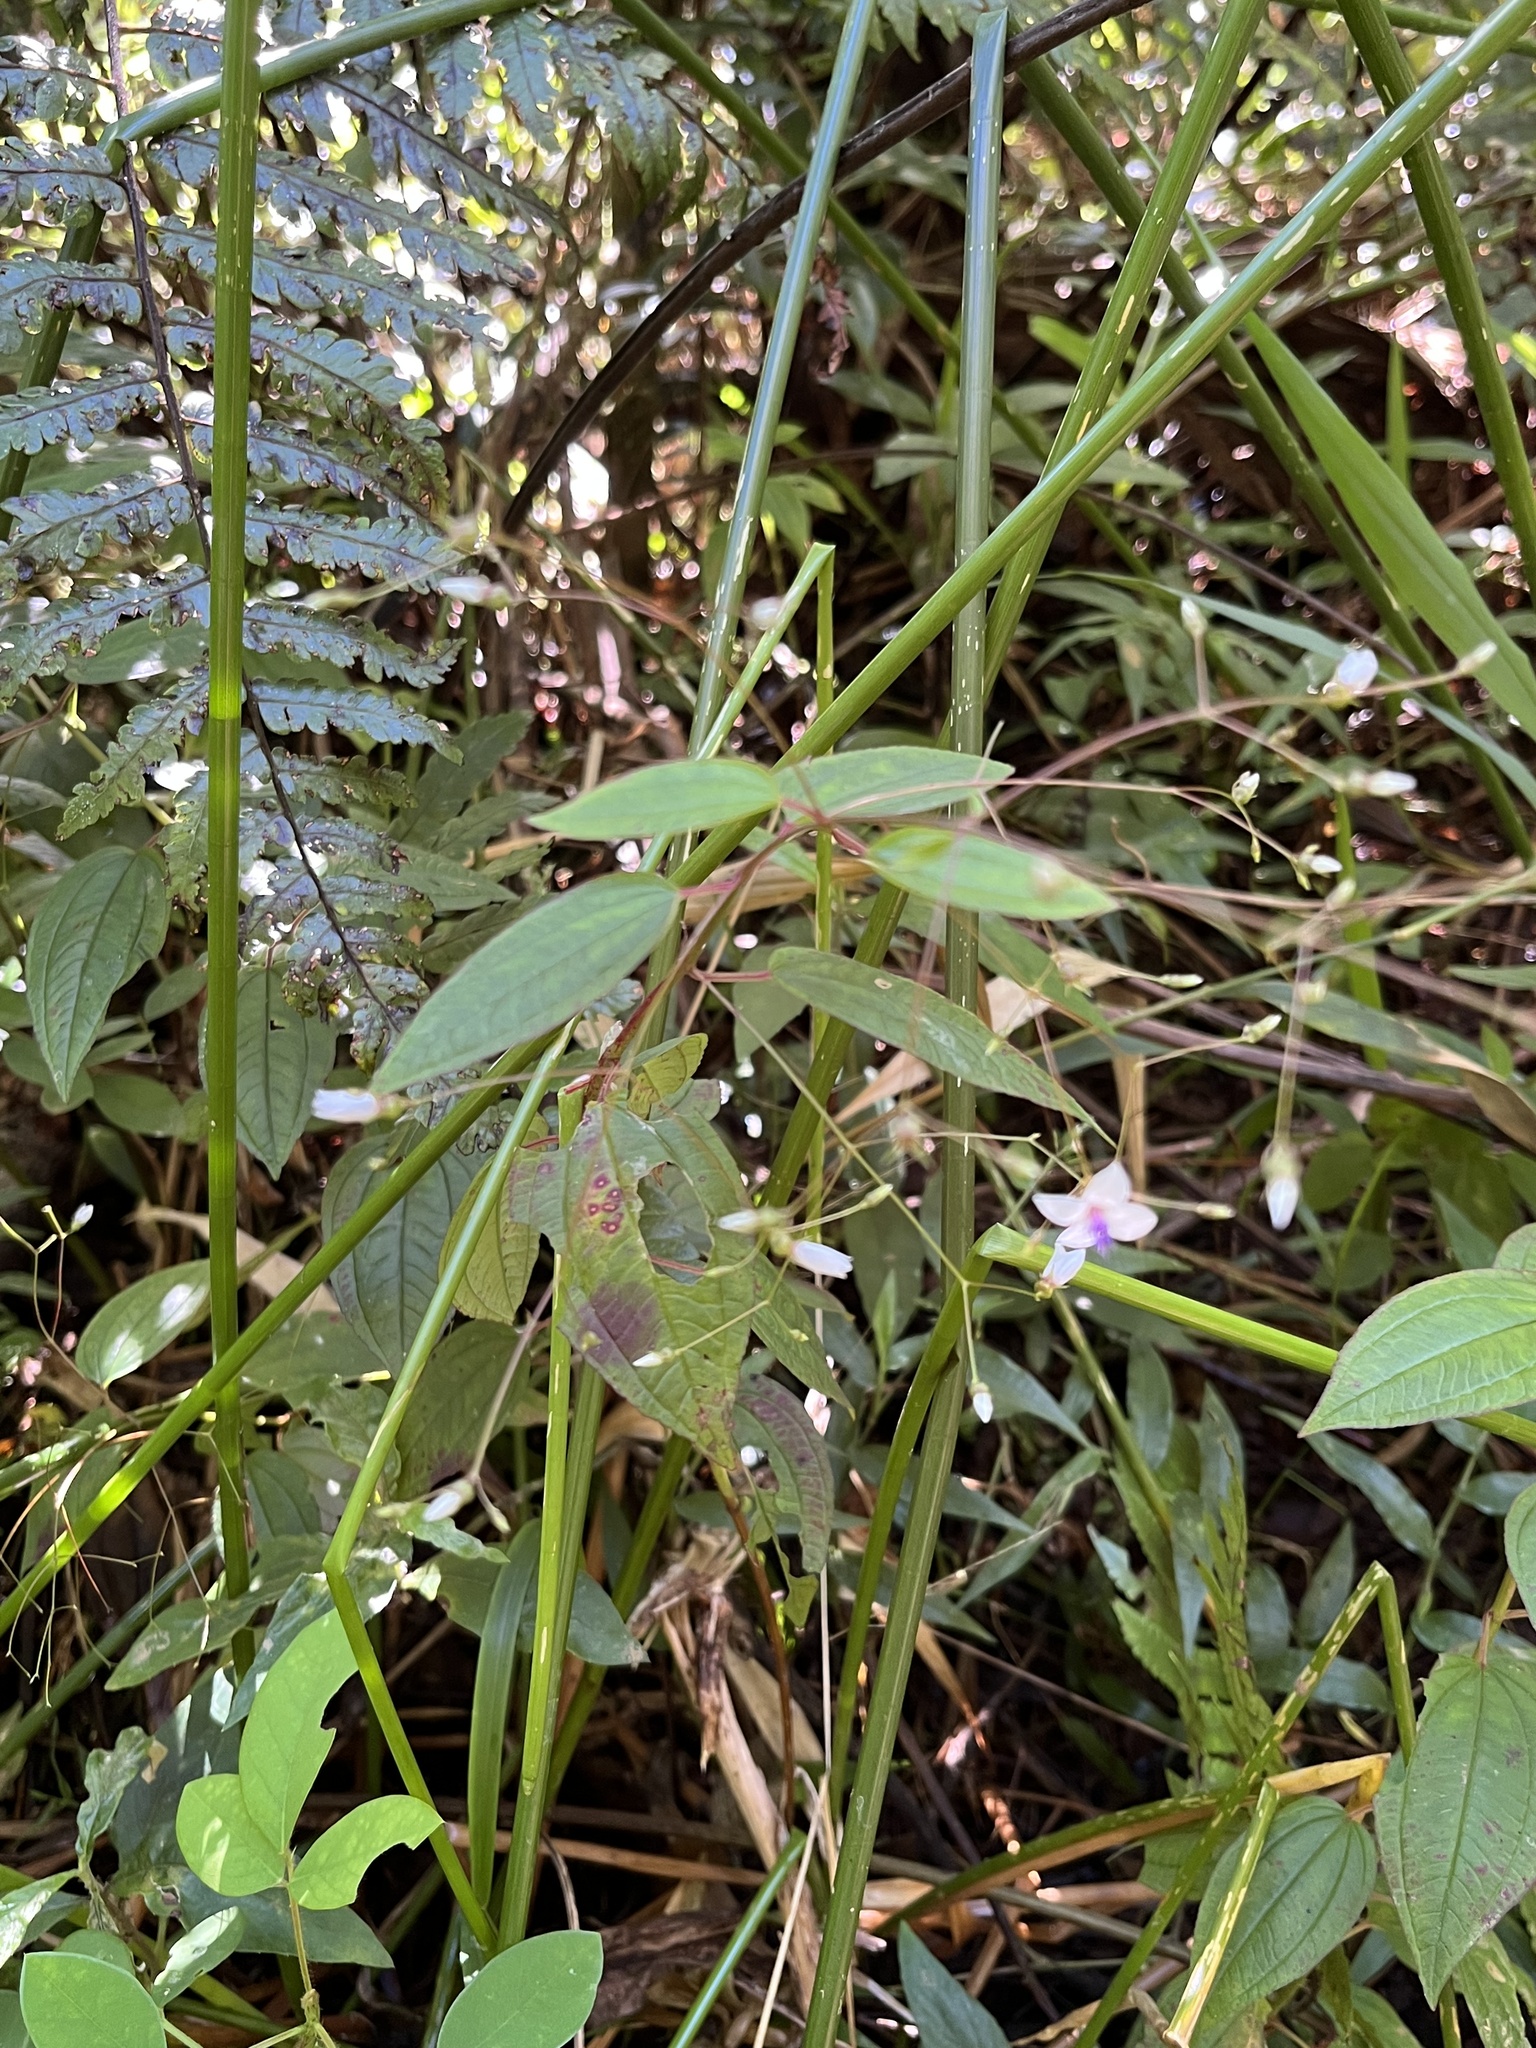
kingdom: Plantae
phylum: Tracheophyta
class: Magnoliopsida
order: Myrtales
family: Melastomataceae
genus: Nepsera
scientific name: Nepsera aquatica
